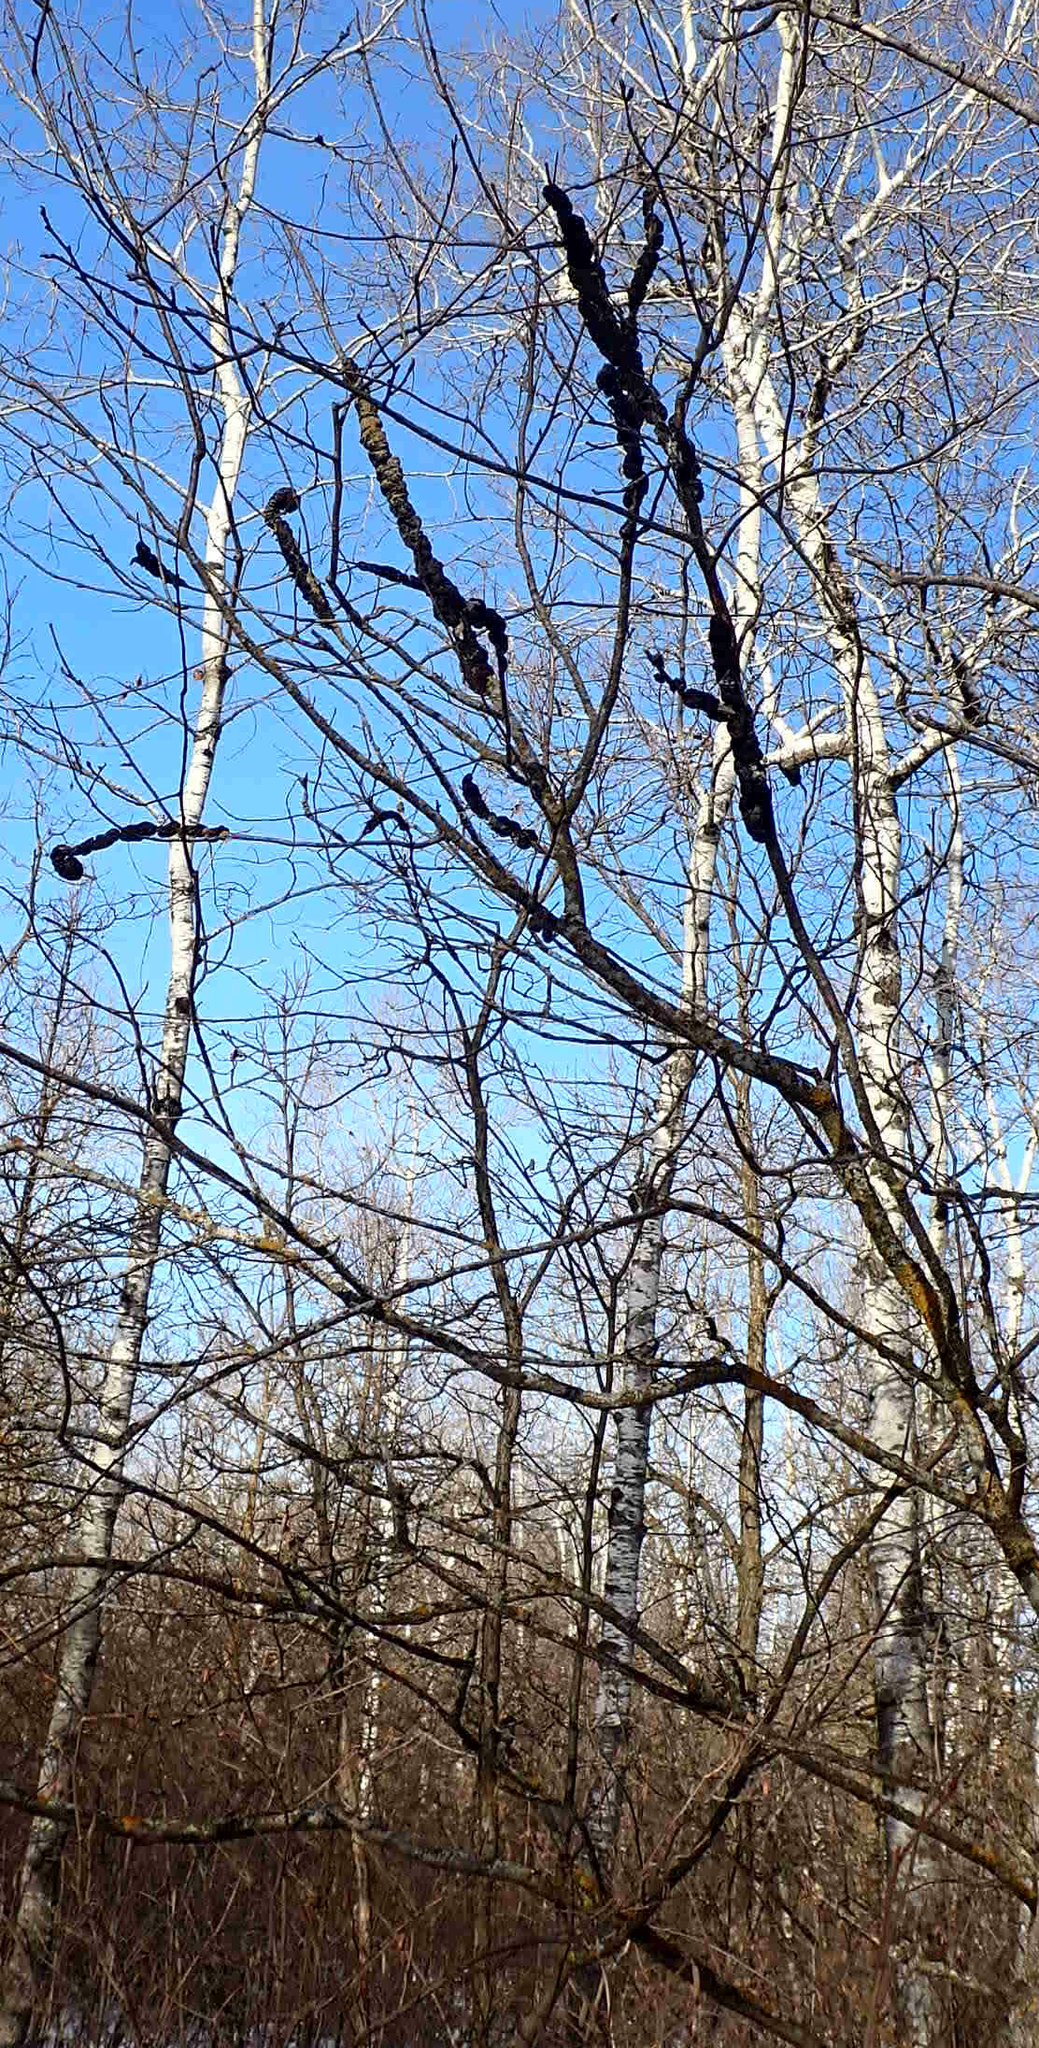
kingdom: Fungi
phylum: Ascomycota
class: Dothideomycetes
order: Venturiales
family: Venturiaceae
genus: Apiosporina
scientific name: Apiosporina morbosa
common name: Black knot
